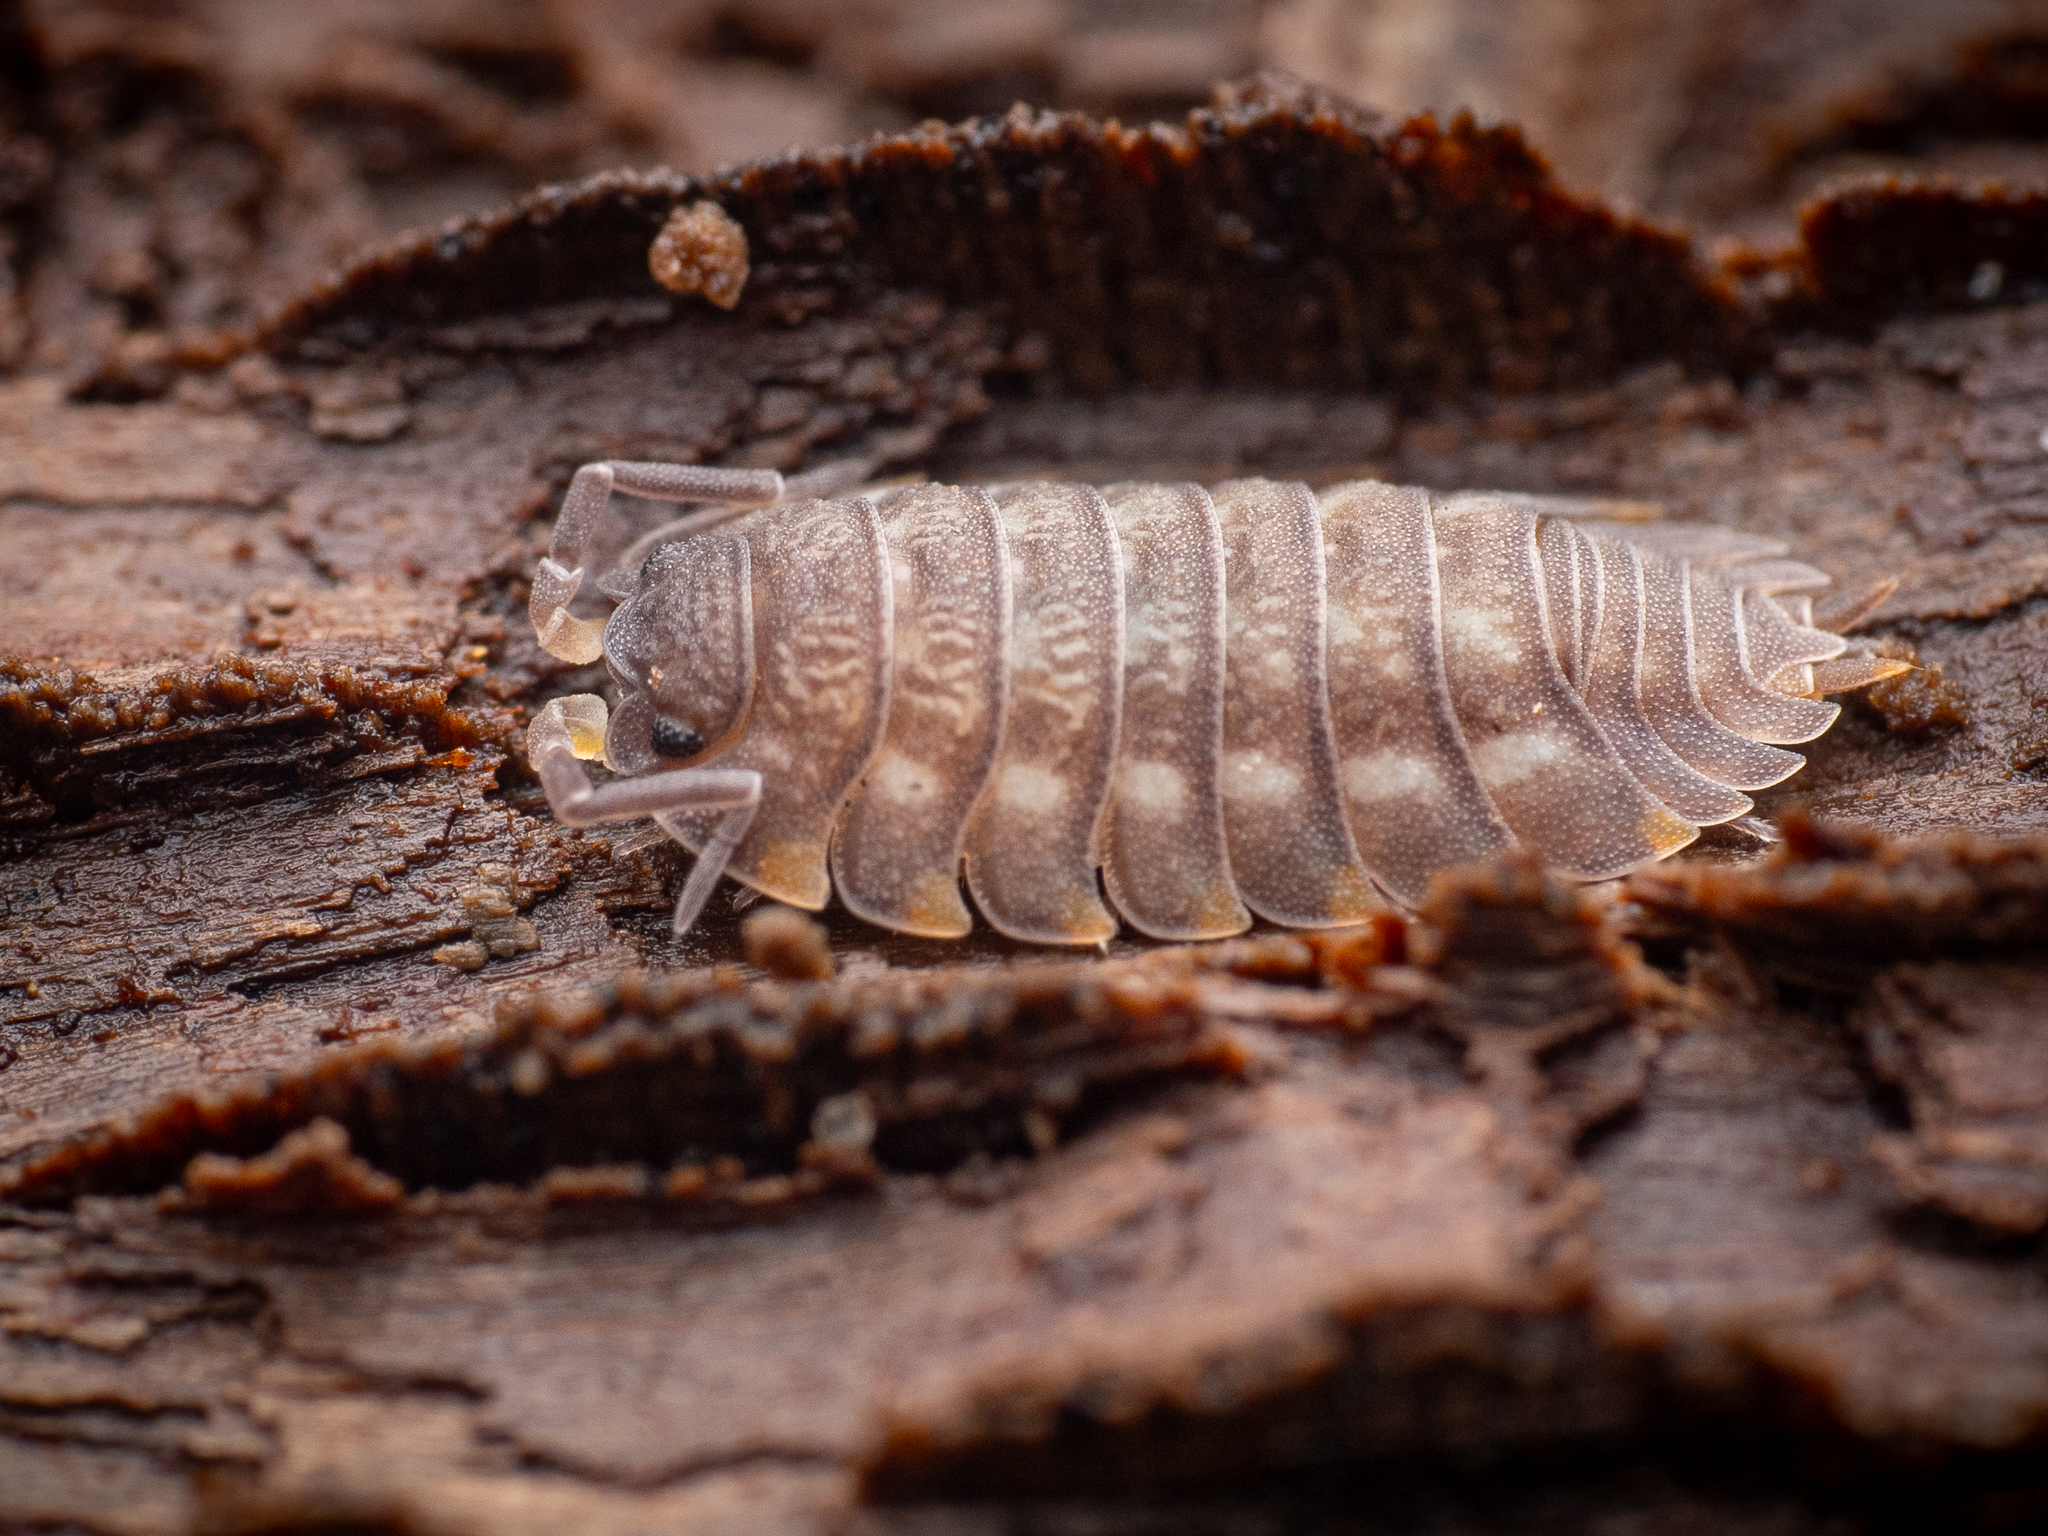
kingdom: Animalia
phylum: Arthropoda
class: Malacostraca
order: Isopoda
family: Trachelipodidae
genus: Trachelipus
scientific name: Trachelipus ratzeburgii
